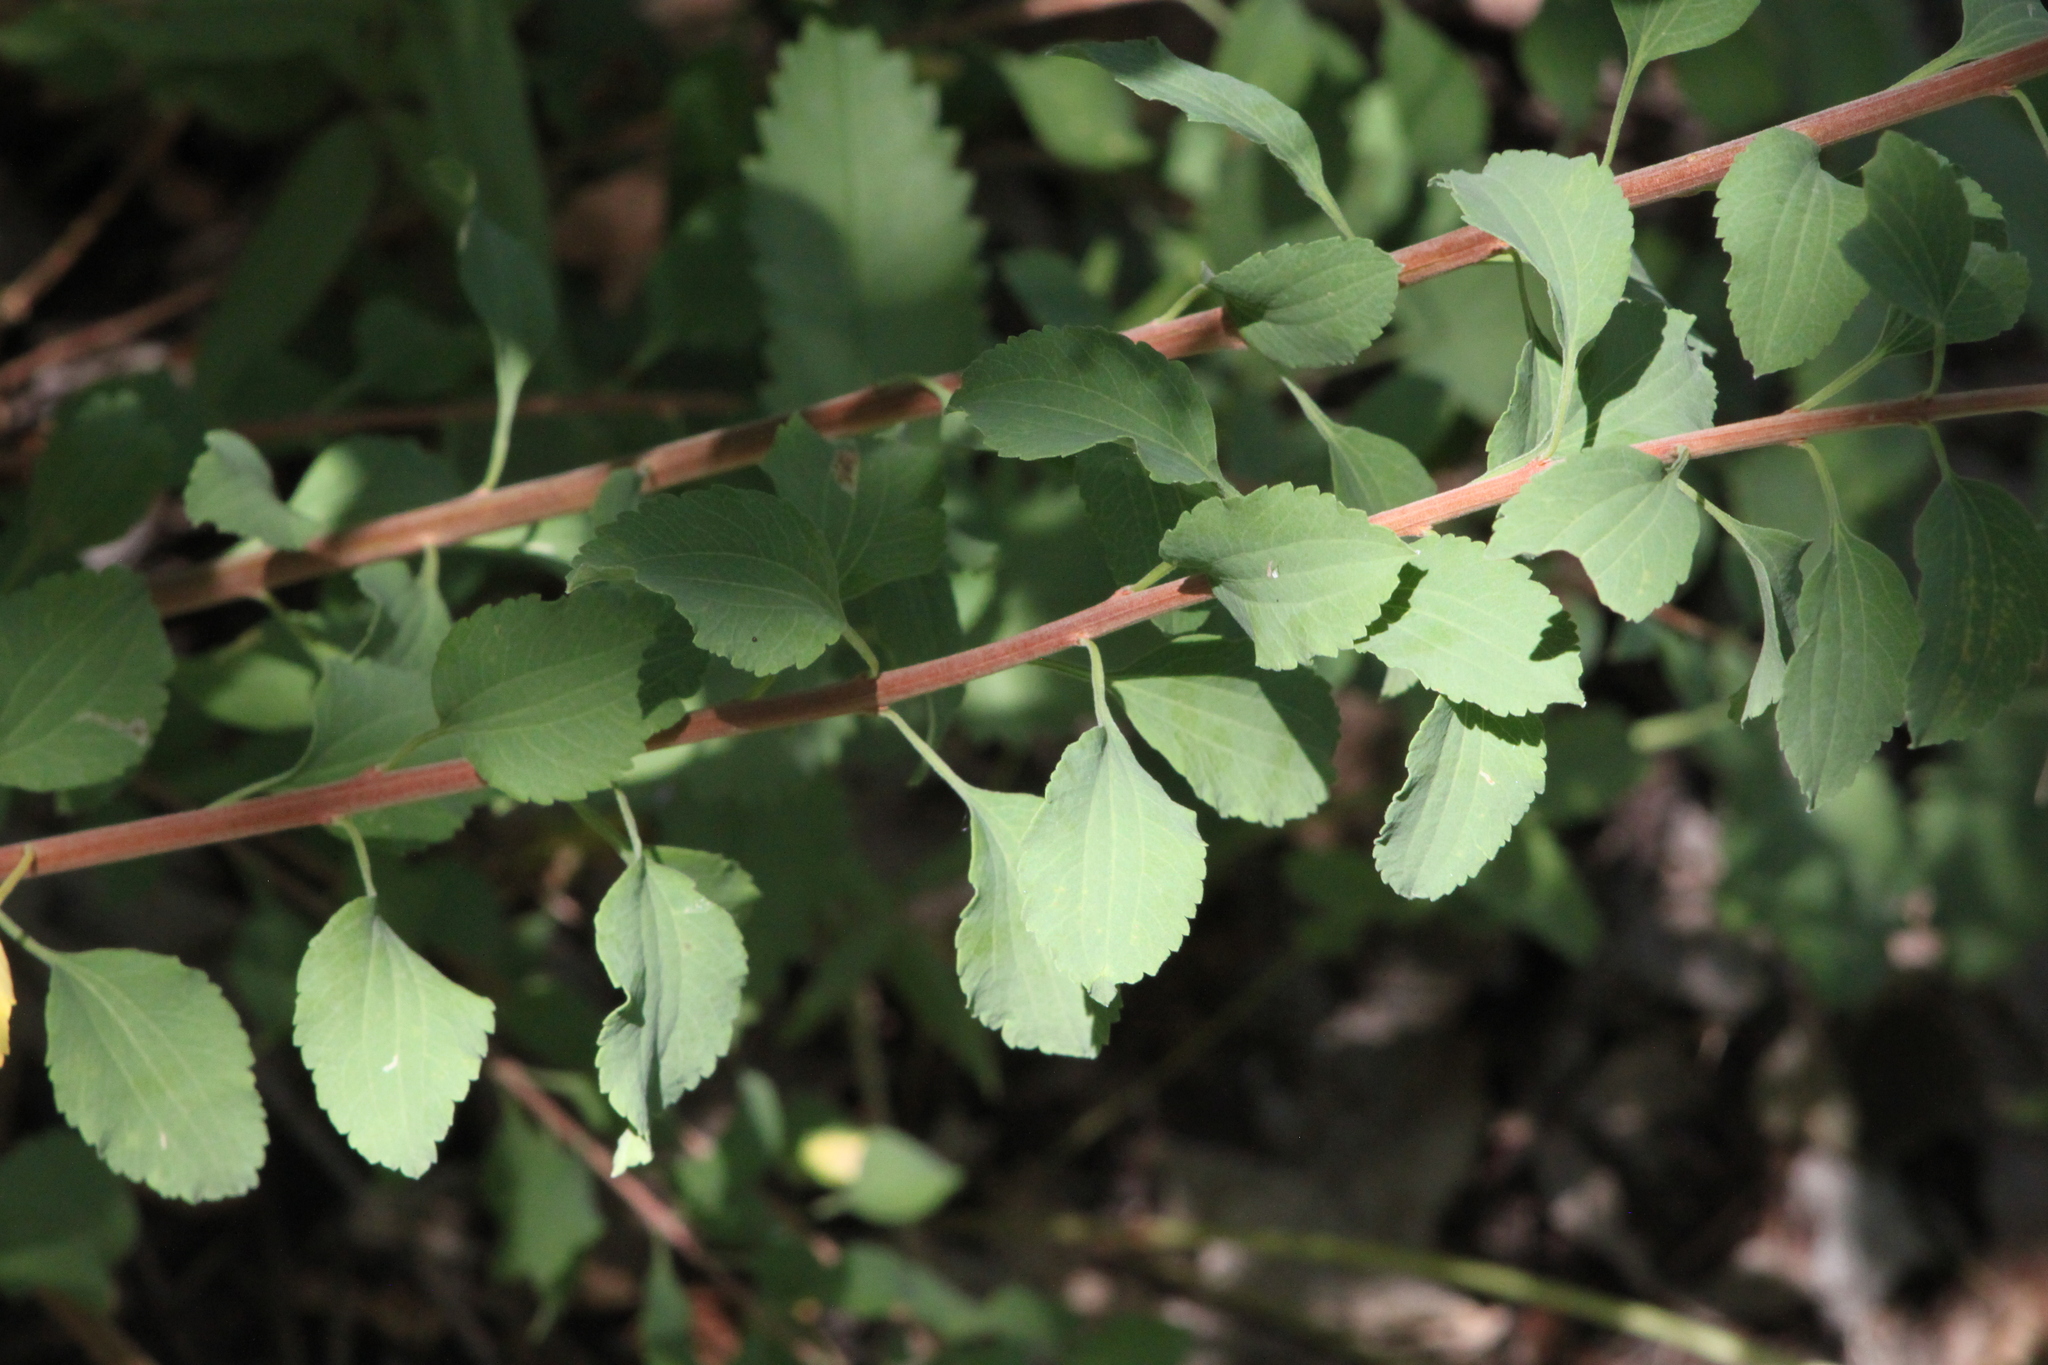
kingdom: Plantae
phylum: Tracheophyta
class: Magnoliopsida
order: Rosales
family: Rosaceae
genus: Spiraea
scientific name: Spiraea trilobata
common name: Asian meadowsweet
